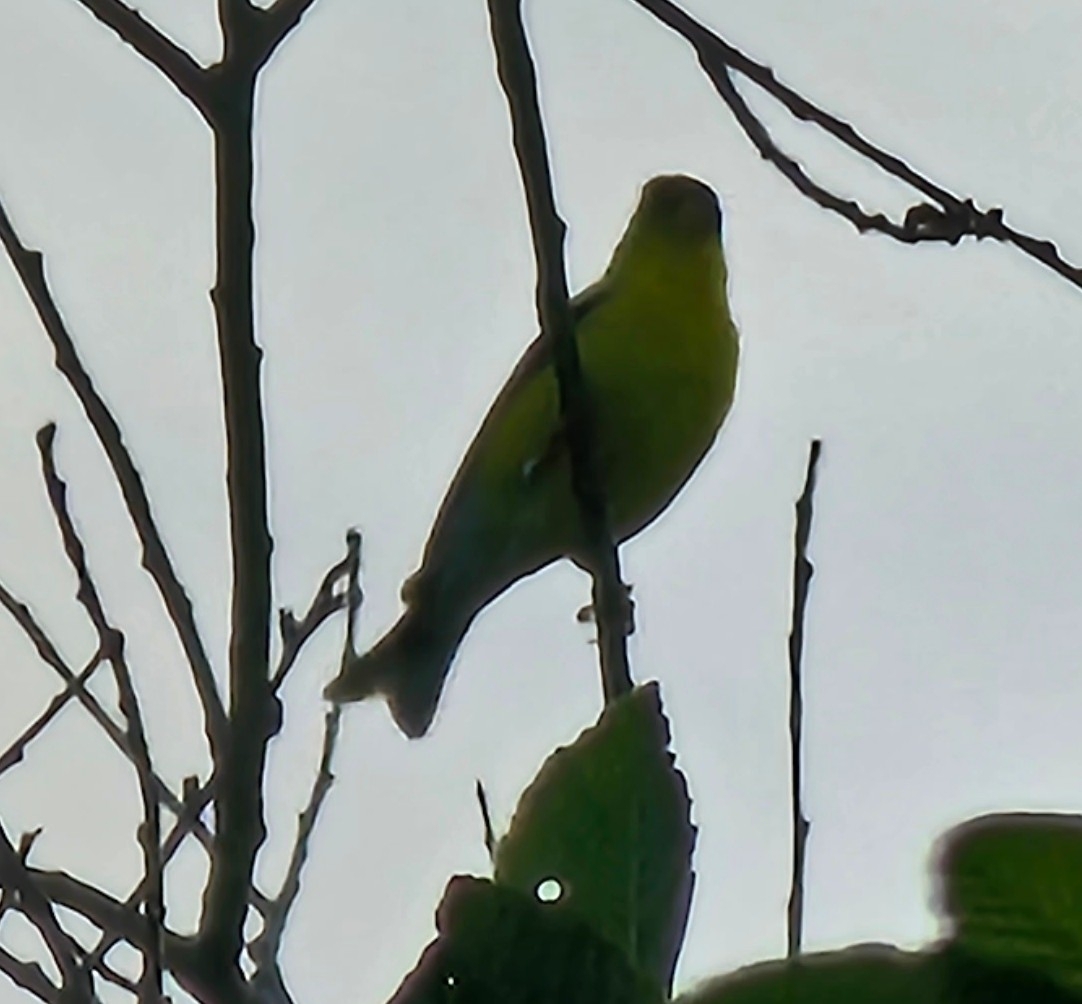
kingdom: Animalia
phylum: Chordata
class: Aves
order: Passeriformes
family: Fringillidae
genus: Spinus
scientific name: Spinus tristis
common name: American goldfinch
